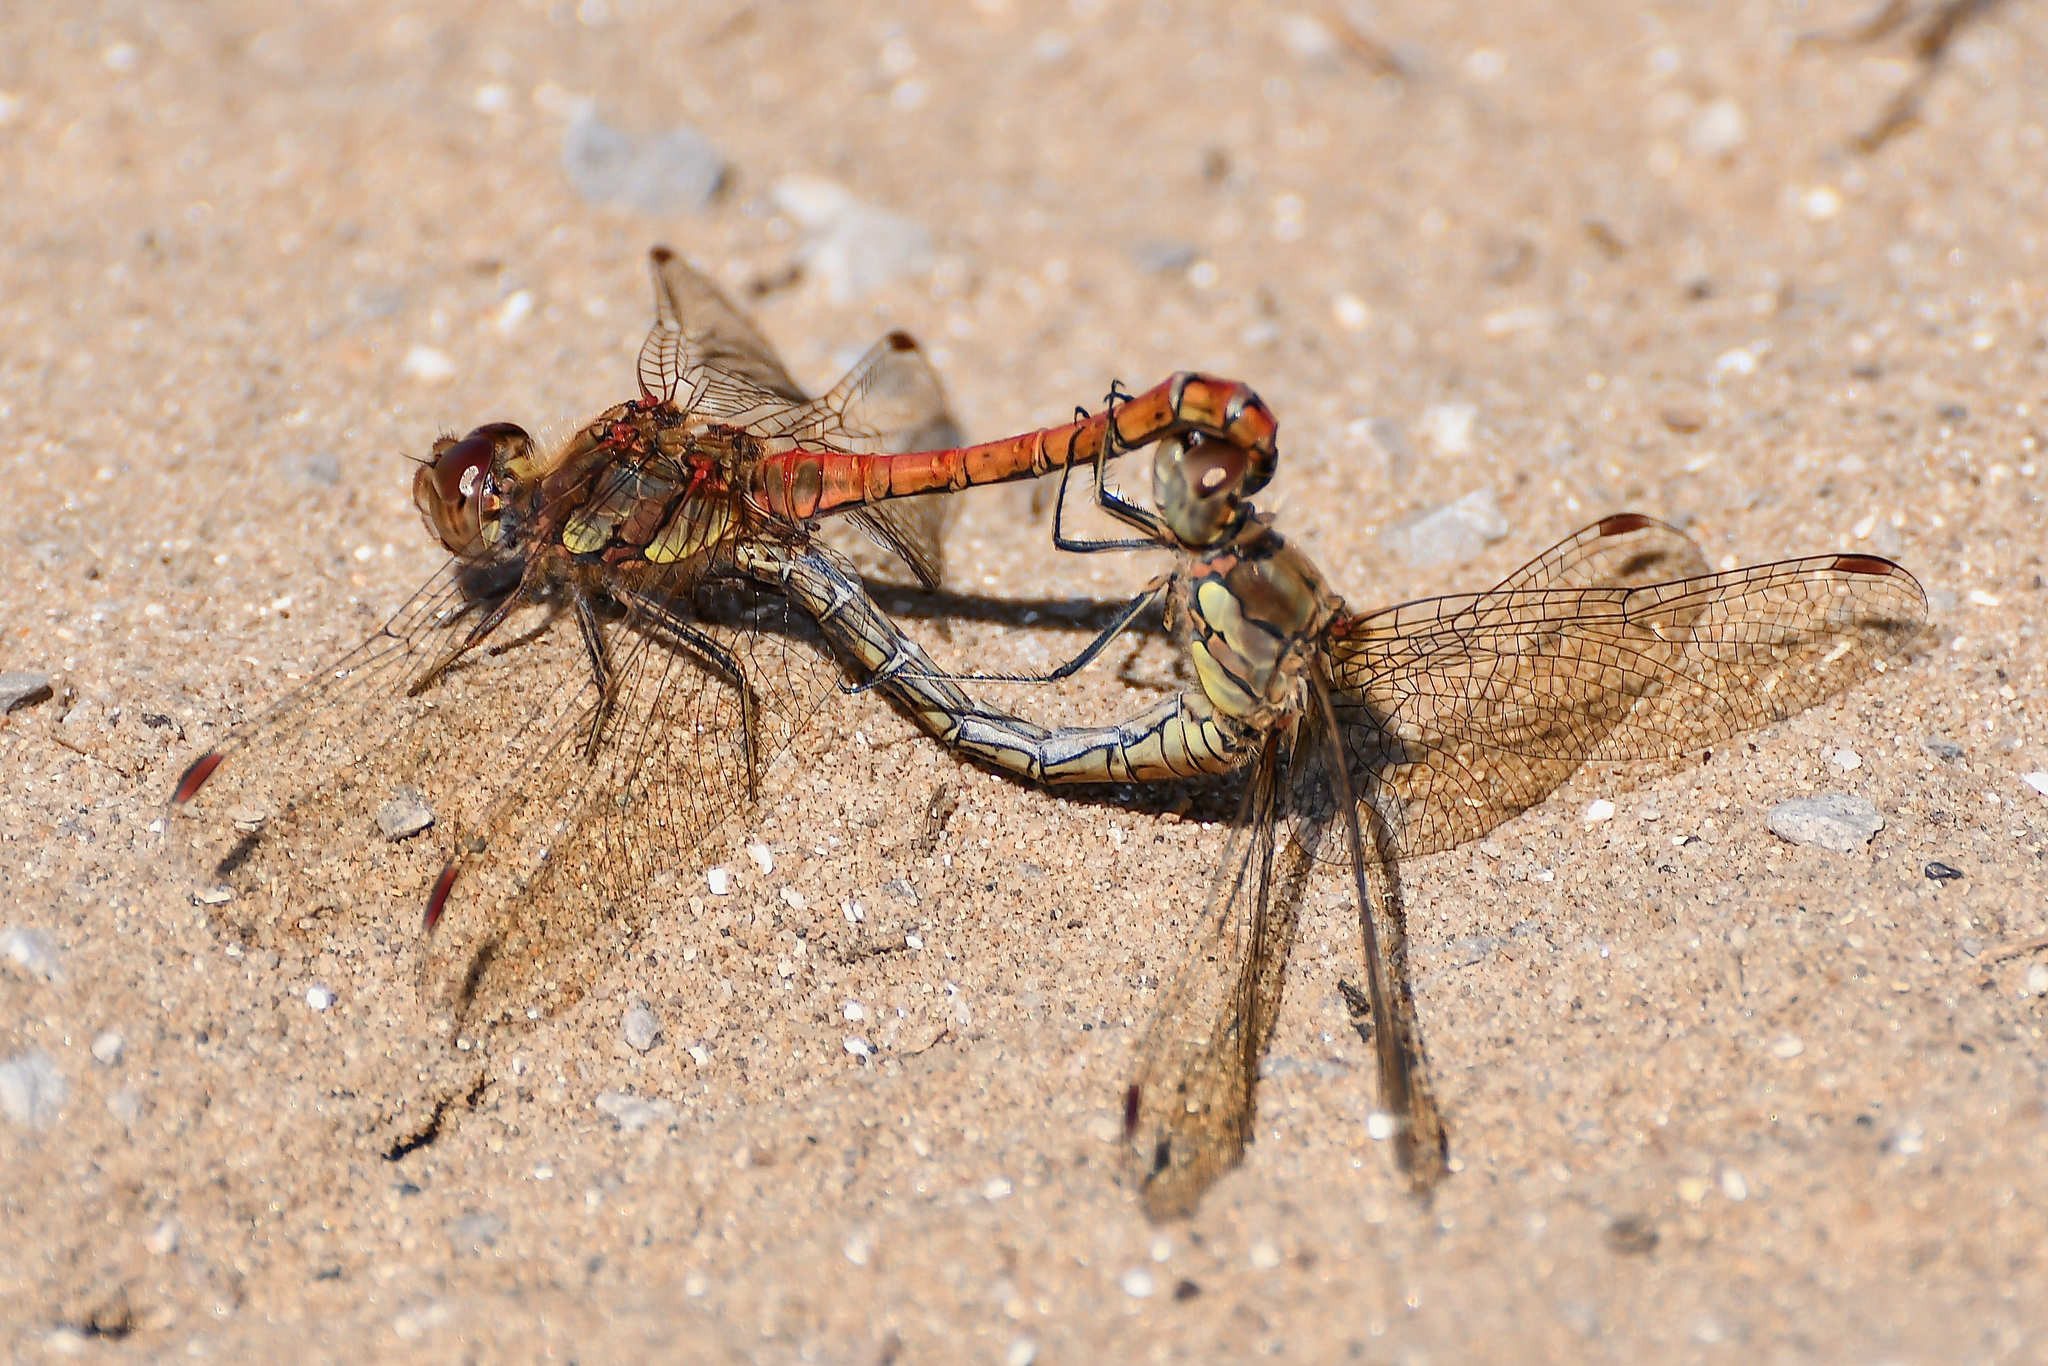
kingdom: Animalia
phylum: Arthropoda
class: Insecta
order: Odonata
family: Libellulidae
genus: Sympetrum
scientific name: Sympetrum striolatum
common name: Common darter
